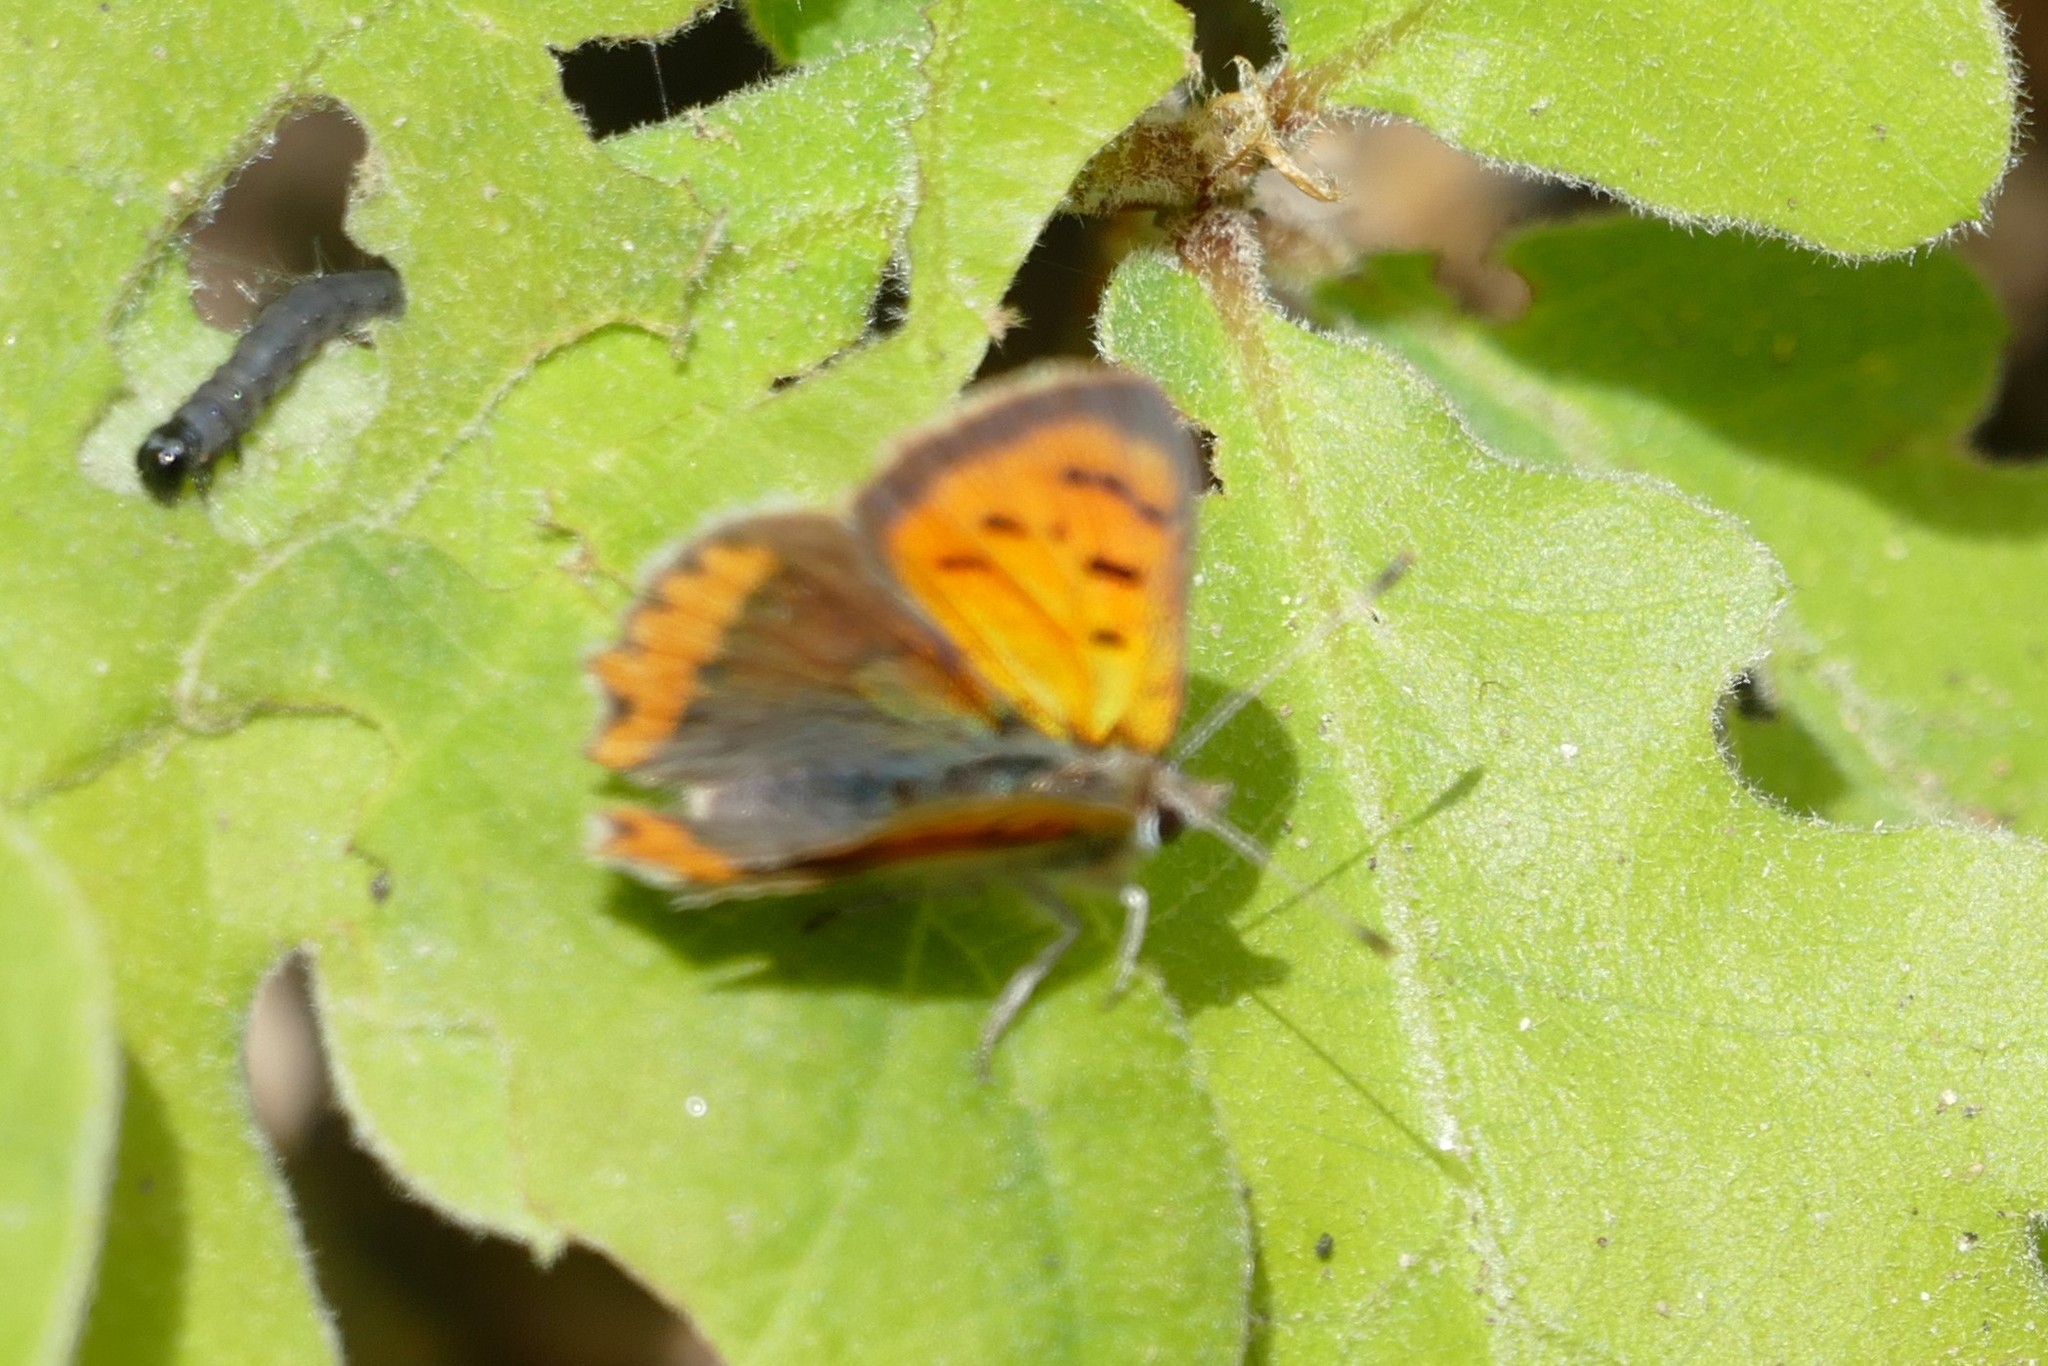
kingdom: Animalia
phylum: Arthropoda
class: Insecta
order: Lepidoptera
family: Lycaenidae
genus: Lycaena
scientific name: Lycaena phlaeas
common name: Small copper
